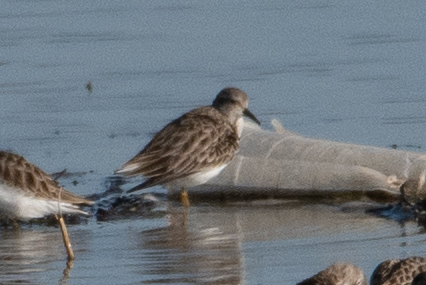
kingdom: Animalia
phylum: Chordata
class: Aves
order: Charadriiformes
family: Scolopacidae
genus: Calidris
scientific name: Calidris minutilla
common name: Least sandpiper
